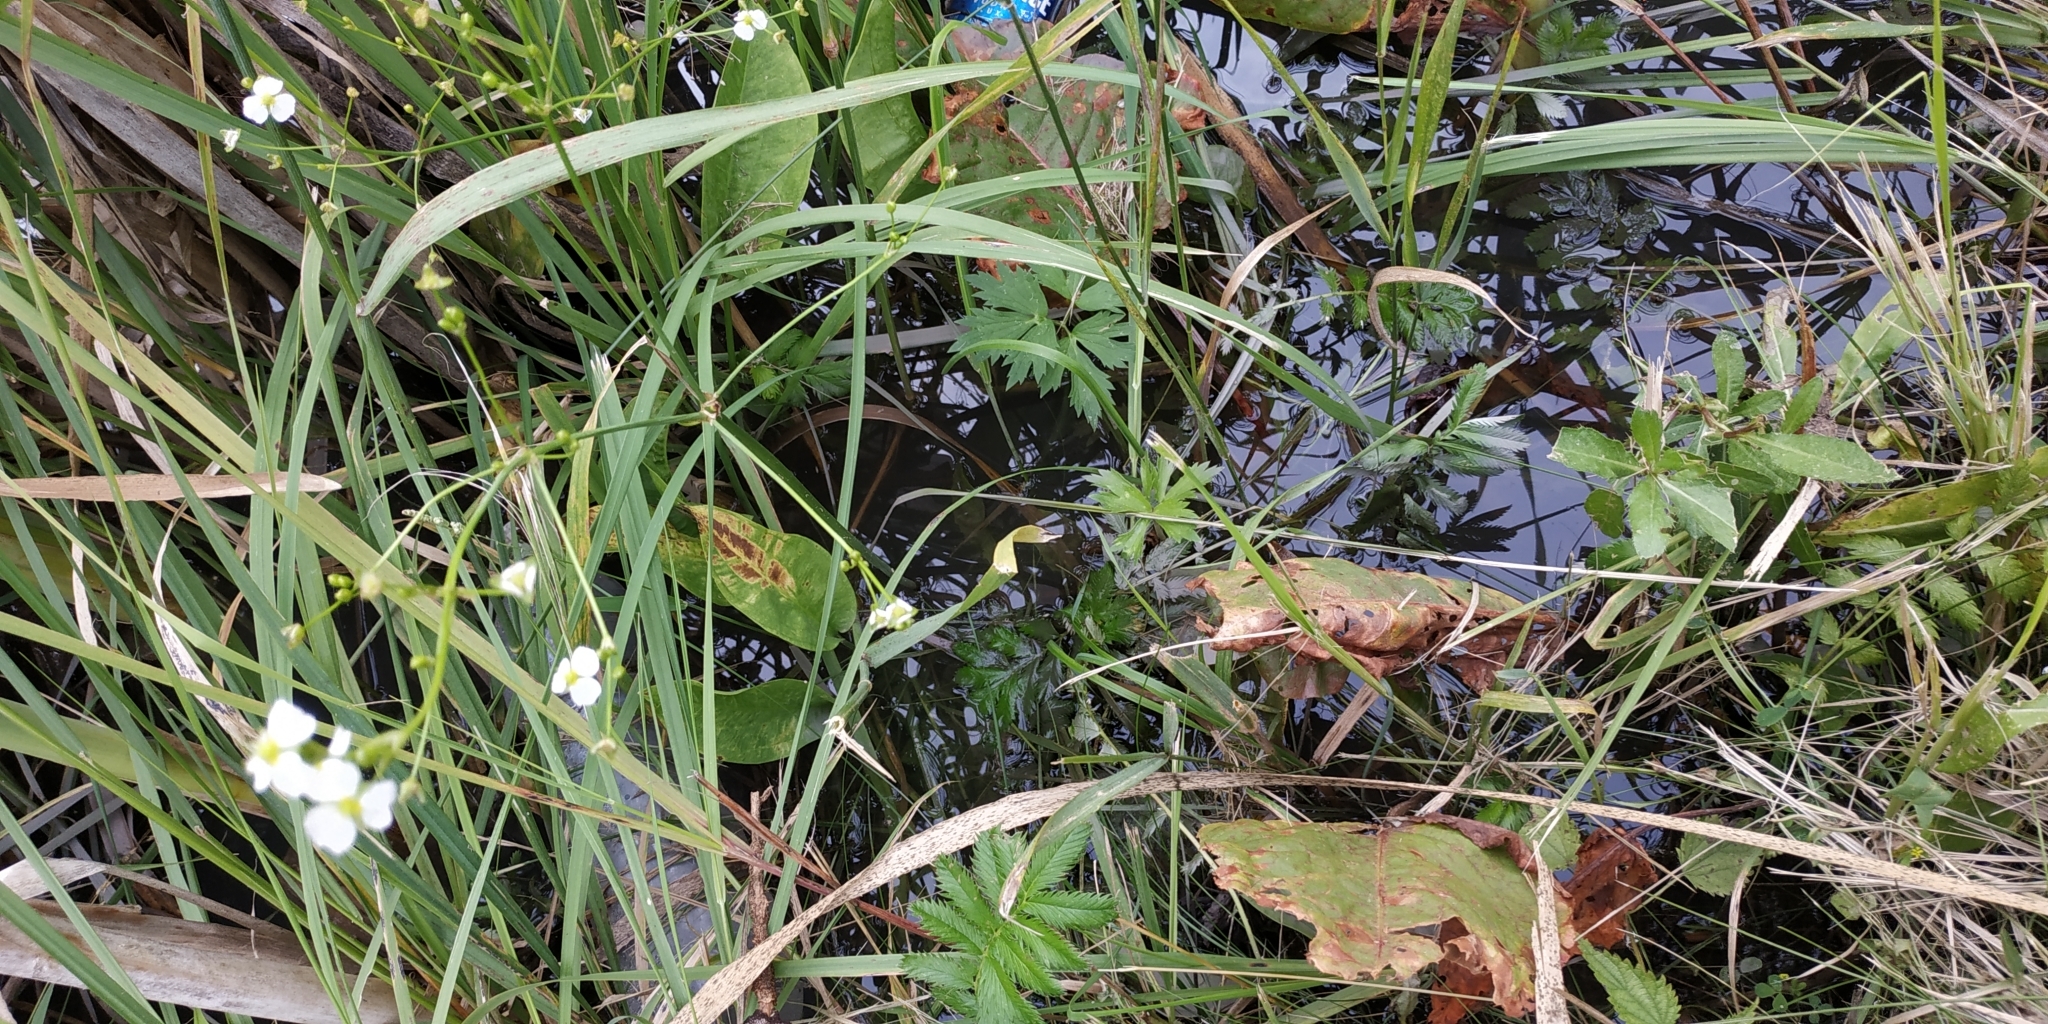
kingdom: Plantae
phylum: Tracheophyta
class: Liliopsida
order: Alismatales
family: Alismataceae
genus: Alisma
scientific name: Alisma plantago-aquatica
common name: Water-plantain
